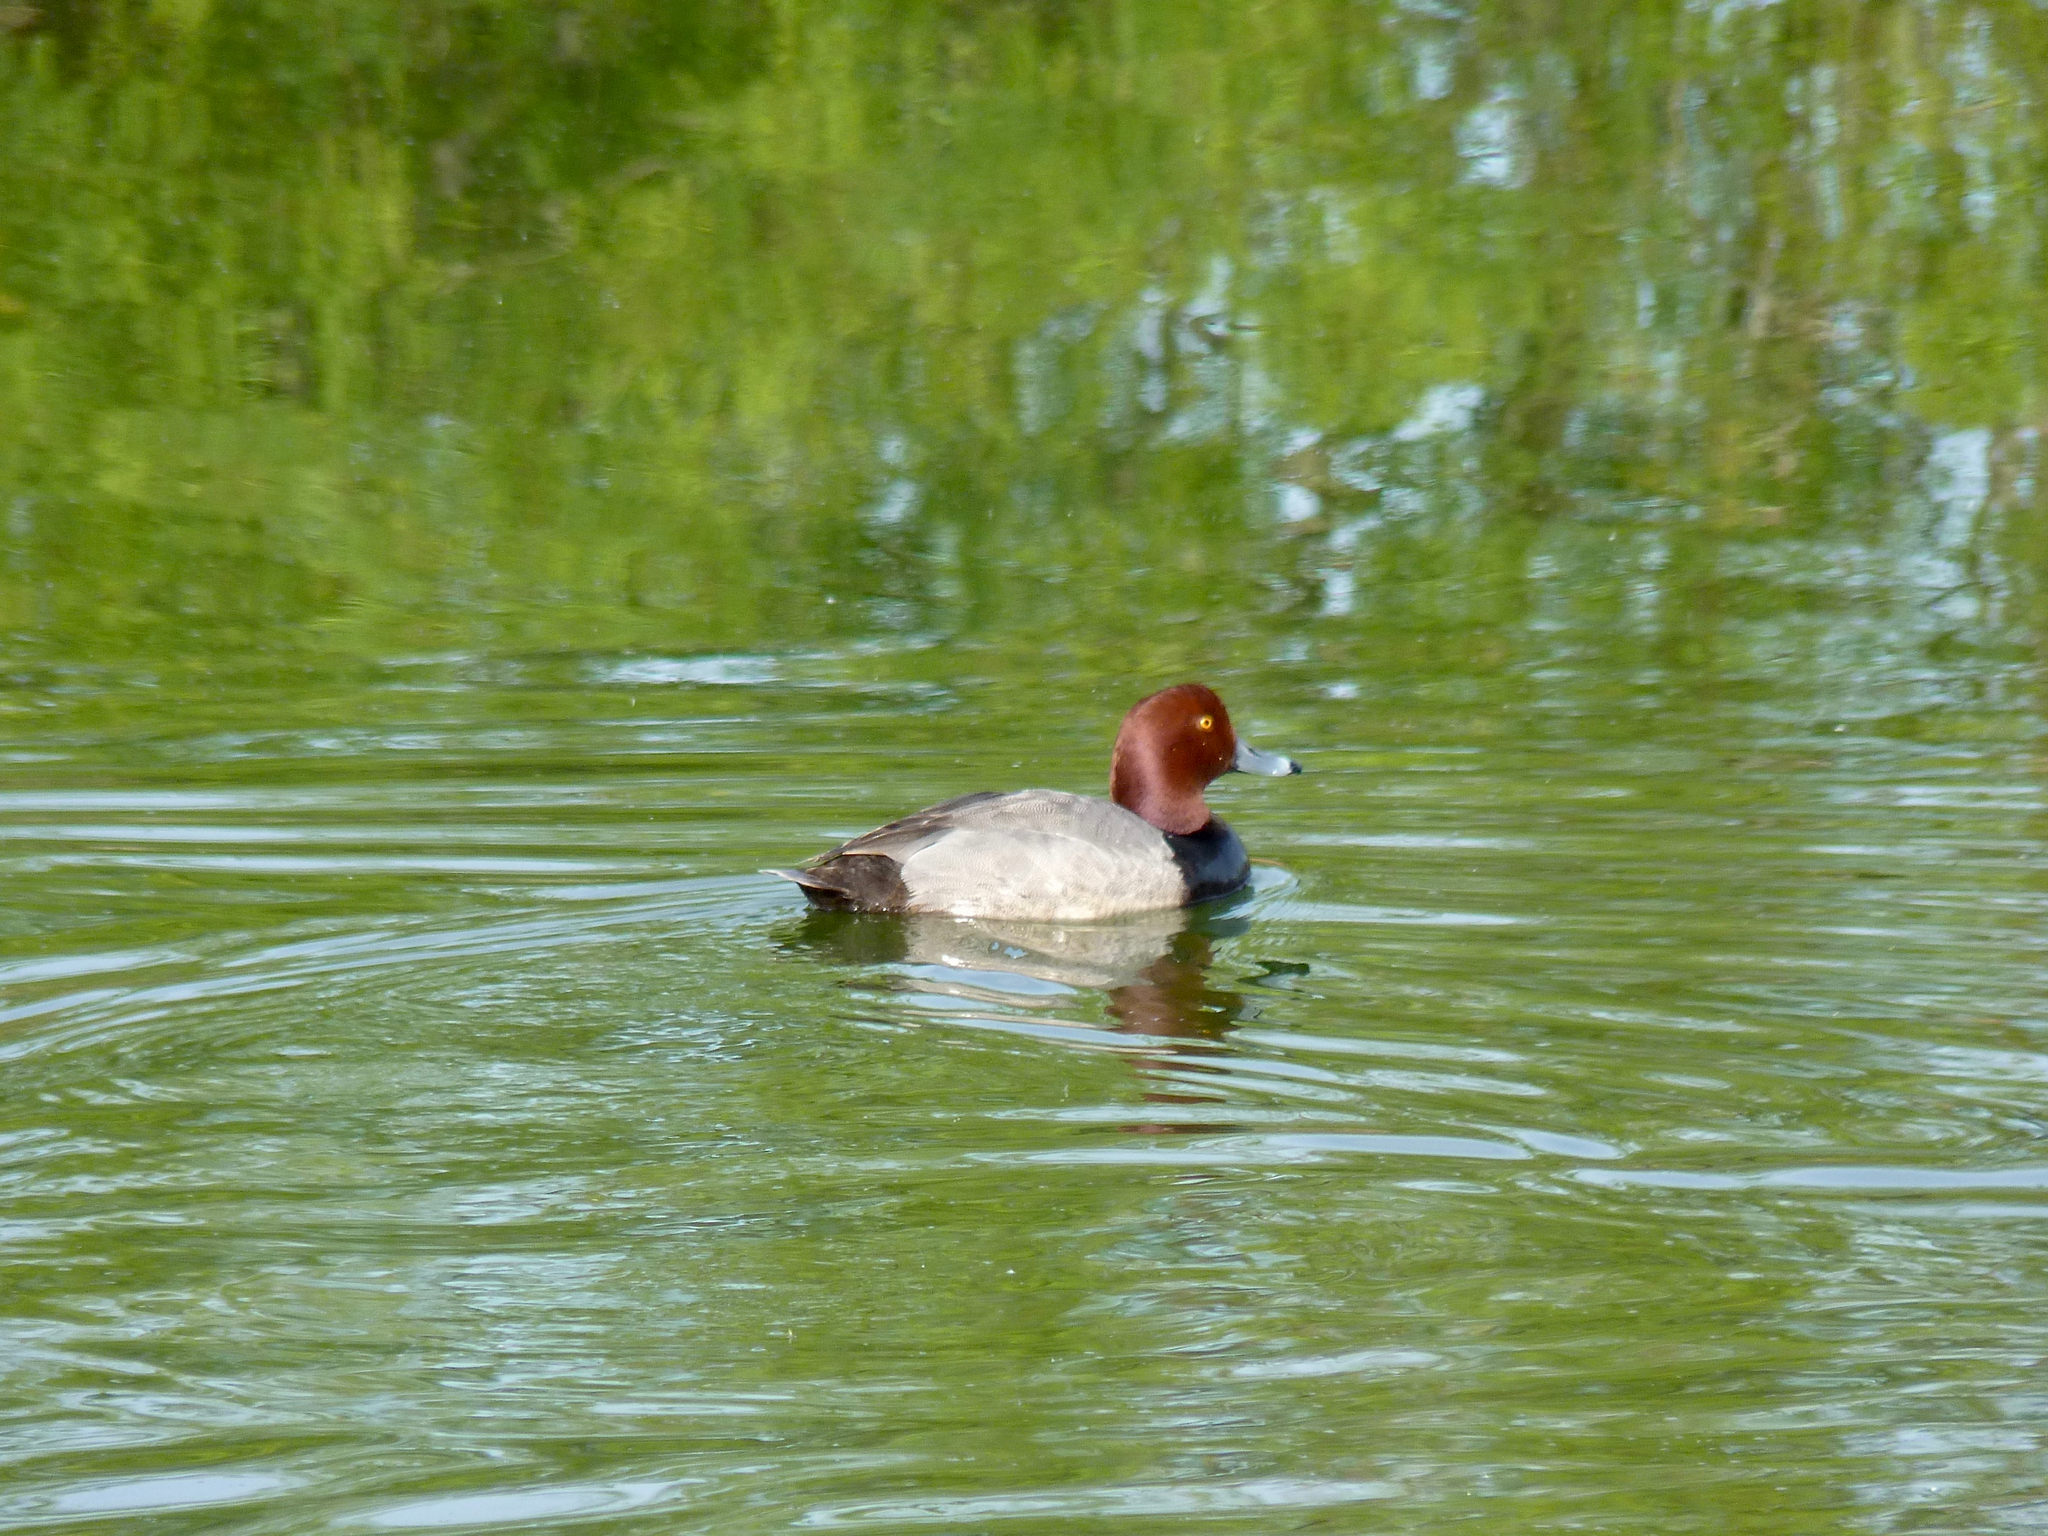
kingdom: Animalia
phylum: Chordata
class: Aves
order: Anseriformes
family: Anatidae
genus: Aythya
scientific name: Aythya americana
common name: Redhead
